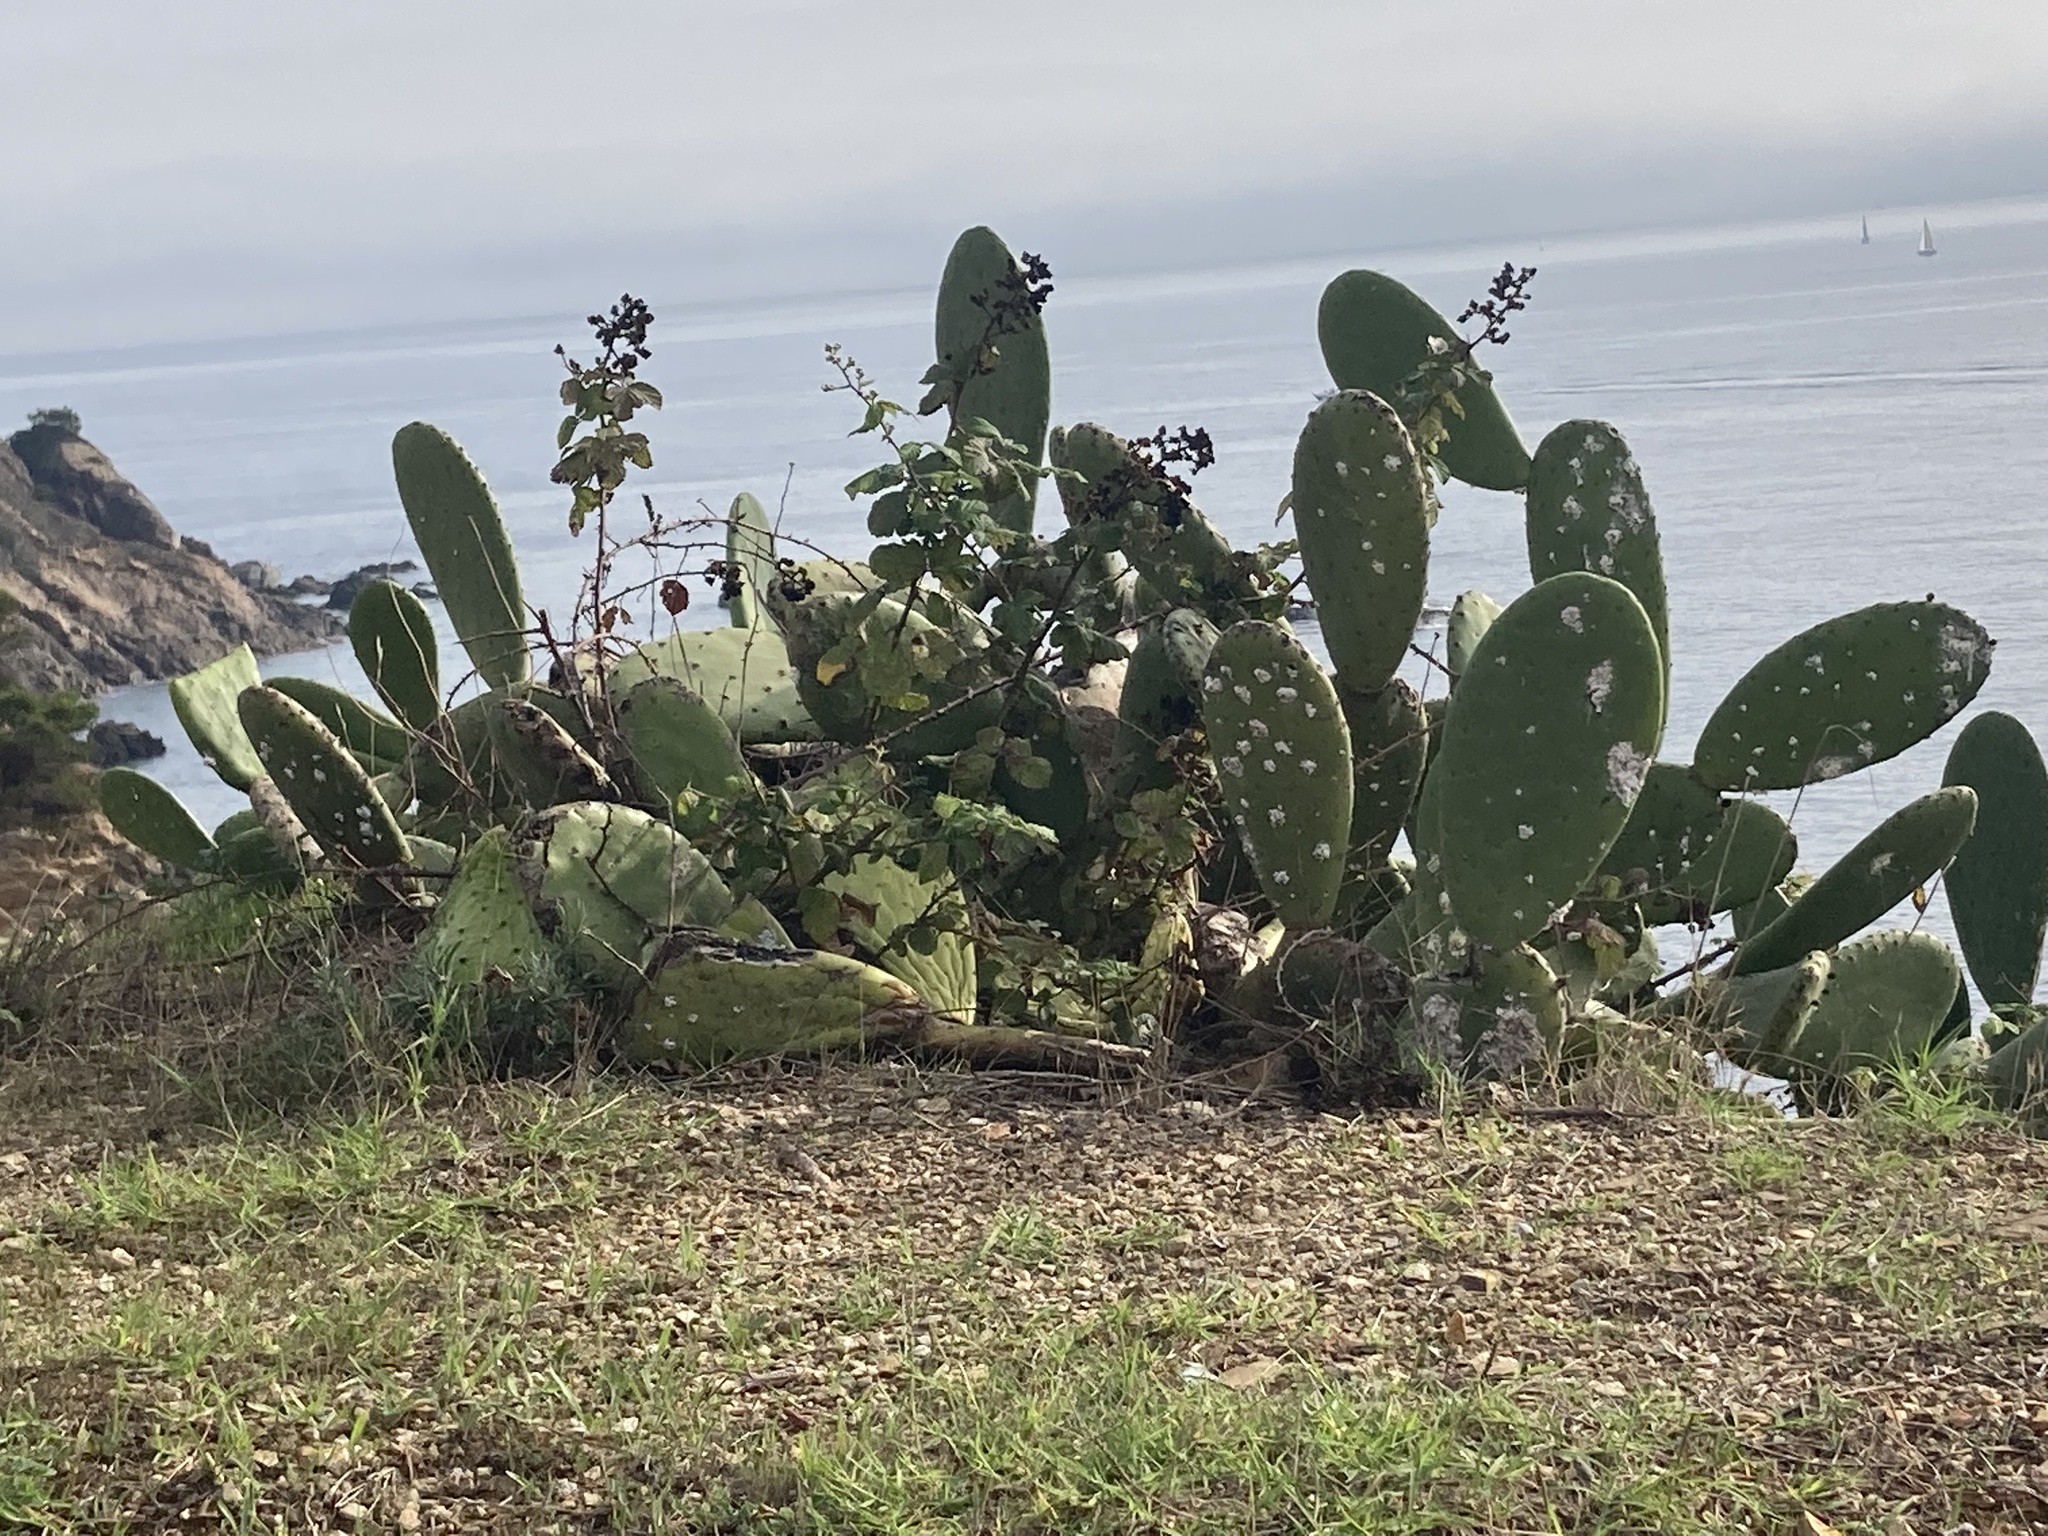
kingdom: Plantae
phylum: Tracheophyta
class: Magnoliopsida
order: Caryophyllales
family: Cactaceae
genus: Opuntia
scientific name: Opuntia ficus-indica
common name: Barbary fig
